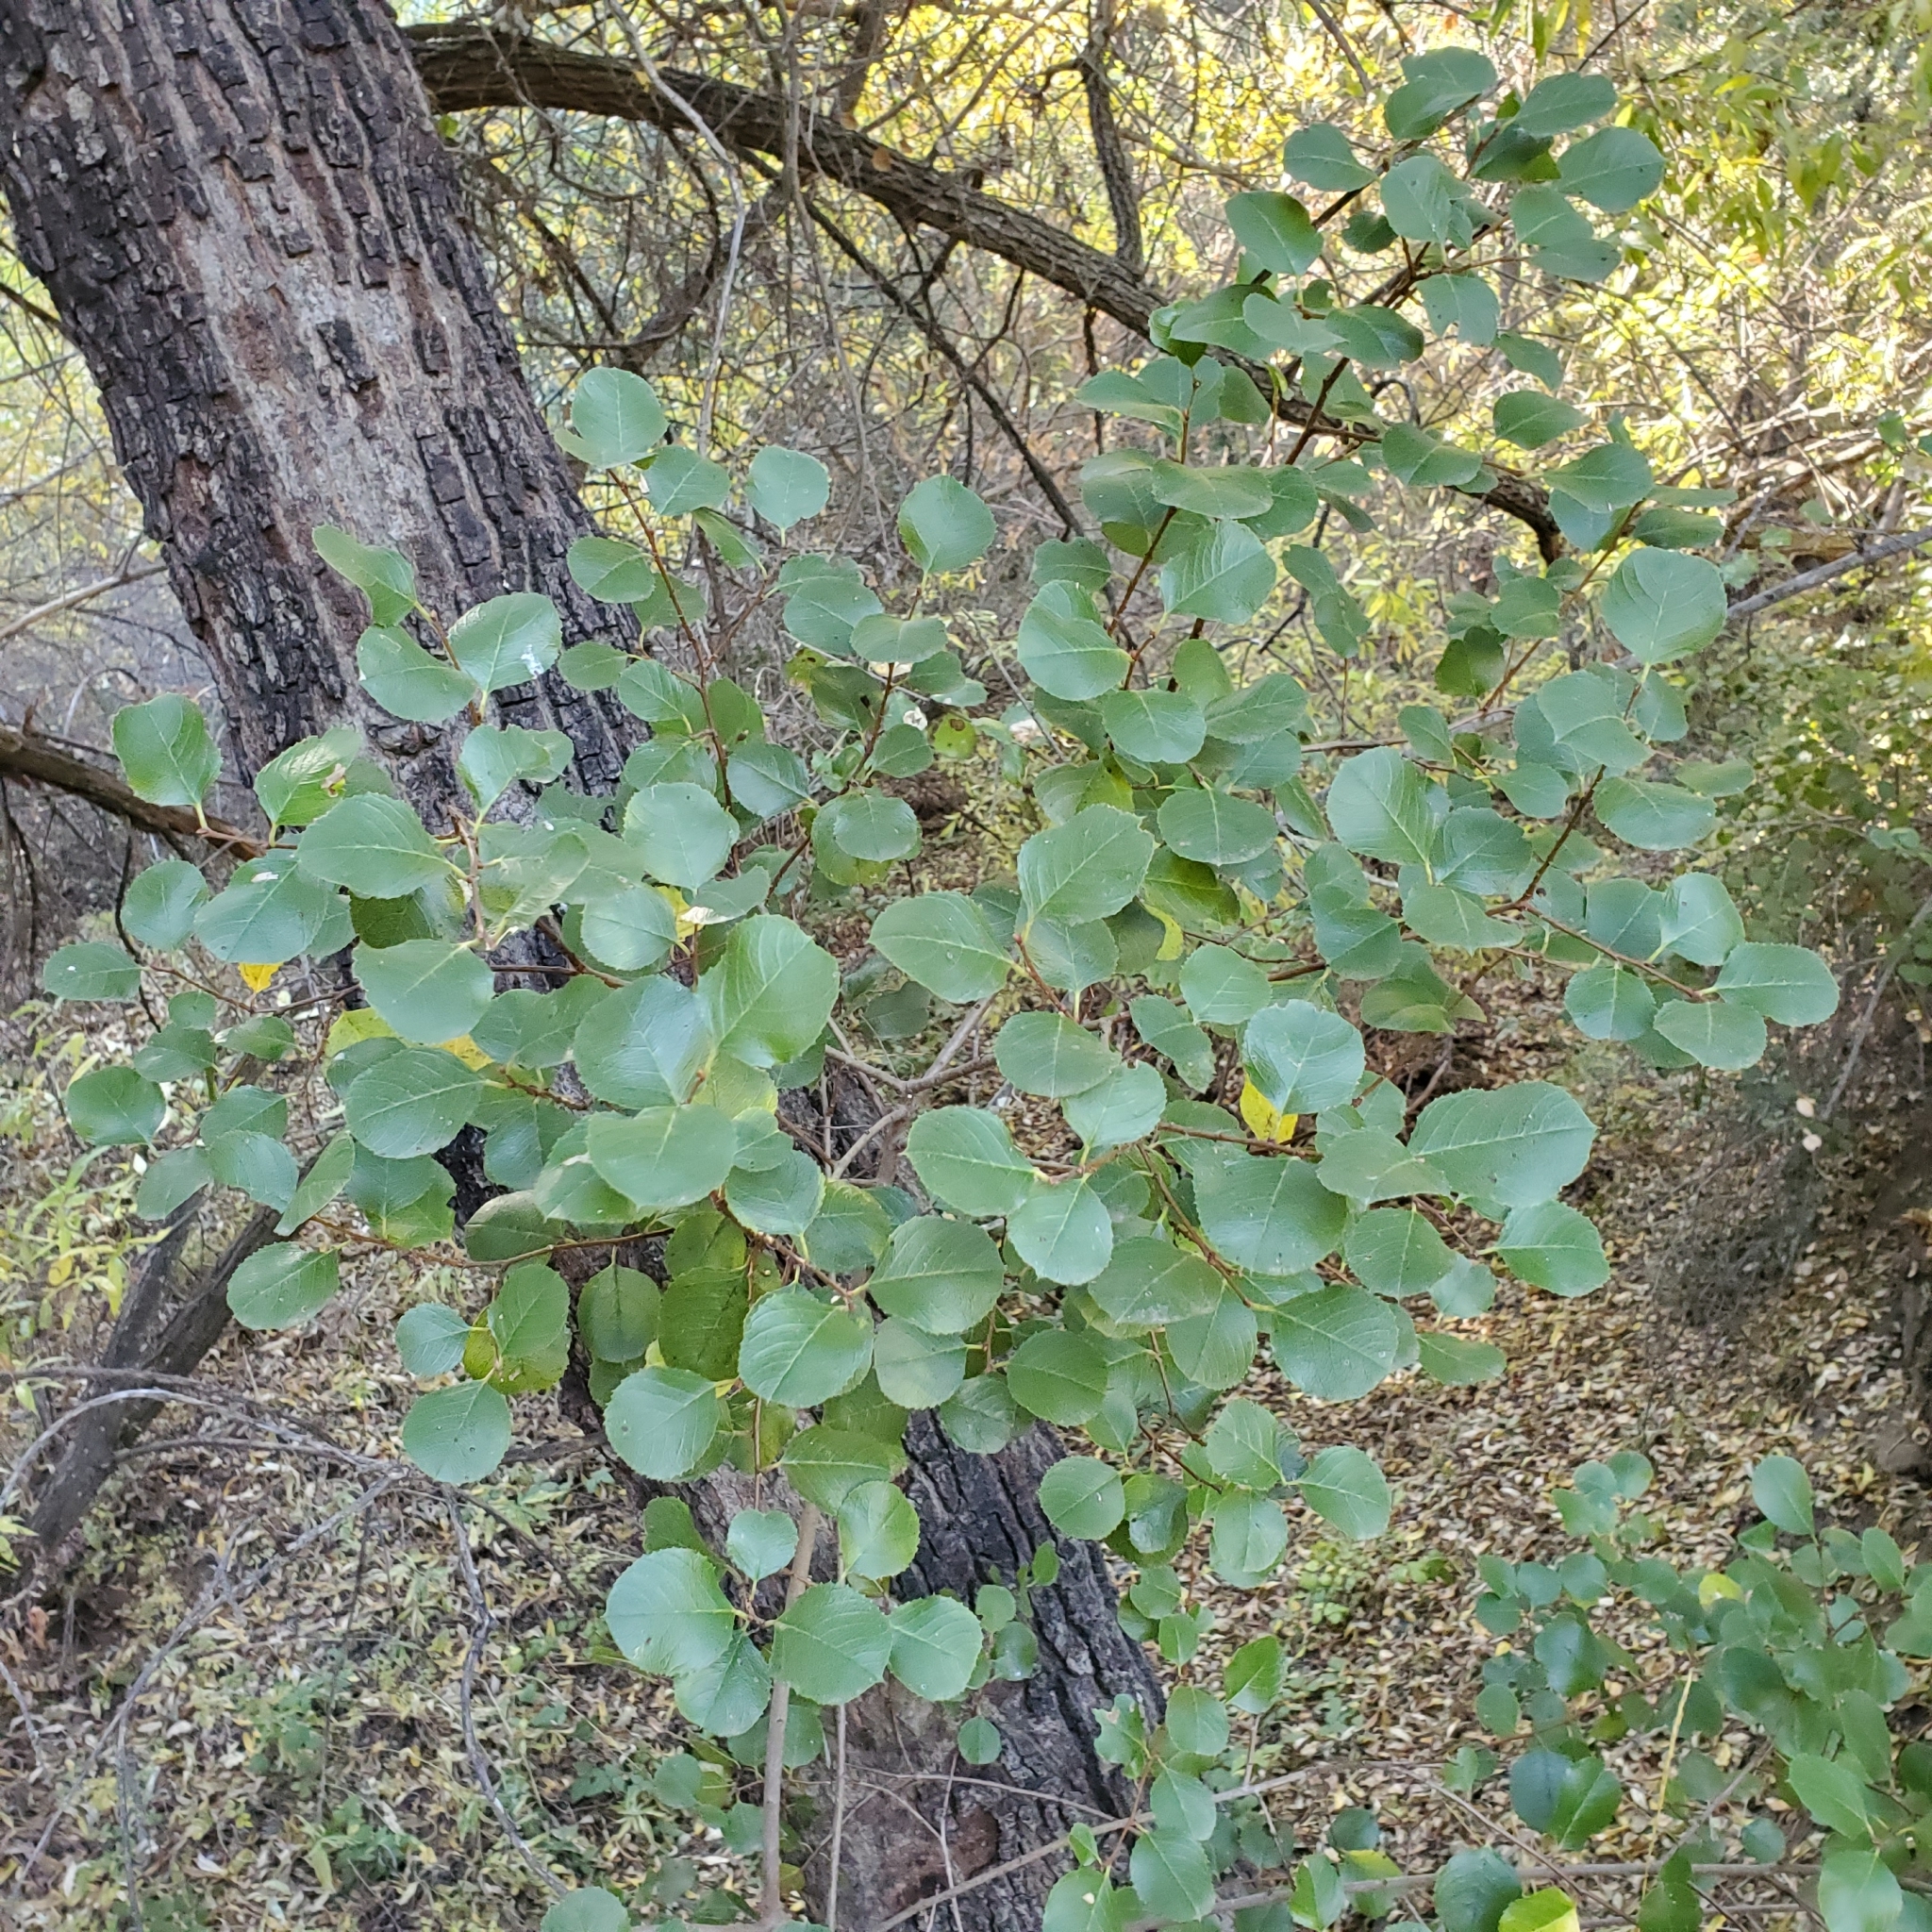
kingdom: Plantae
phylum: Tracheophyta
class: Polypodiopsida
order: Polypodiales
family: Pteridaceae
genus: Pellaea
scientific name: Pellaea andromedifolia
